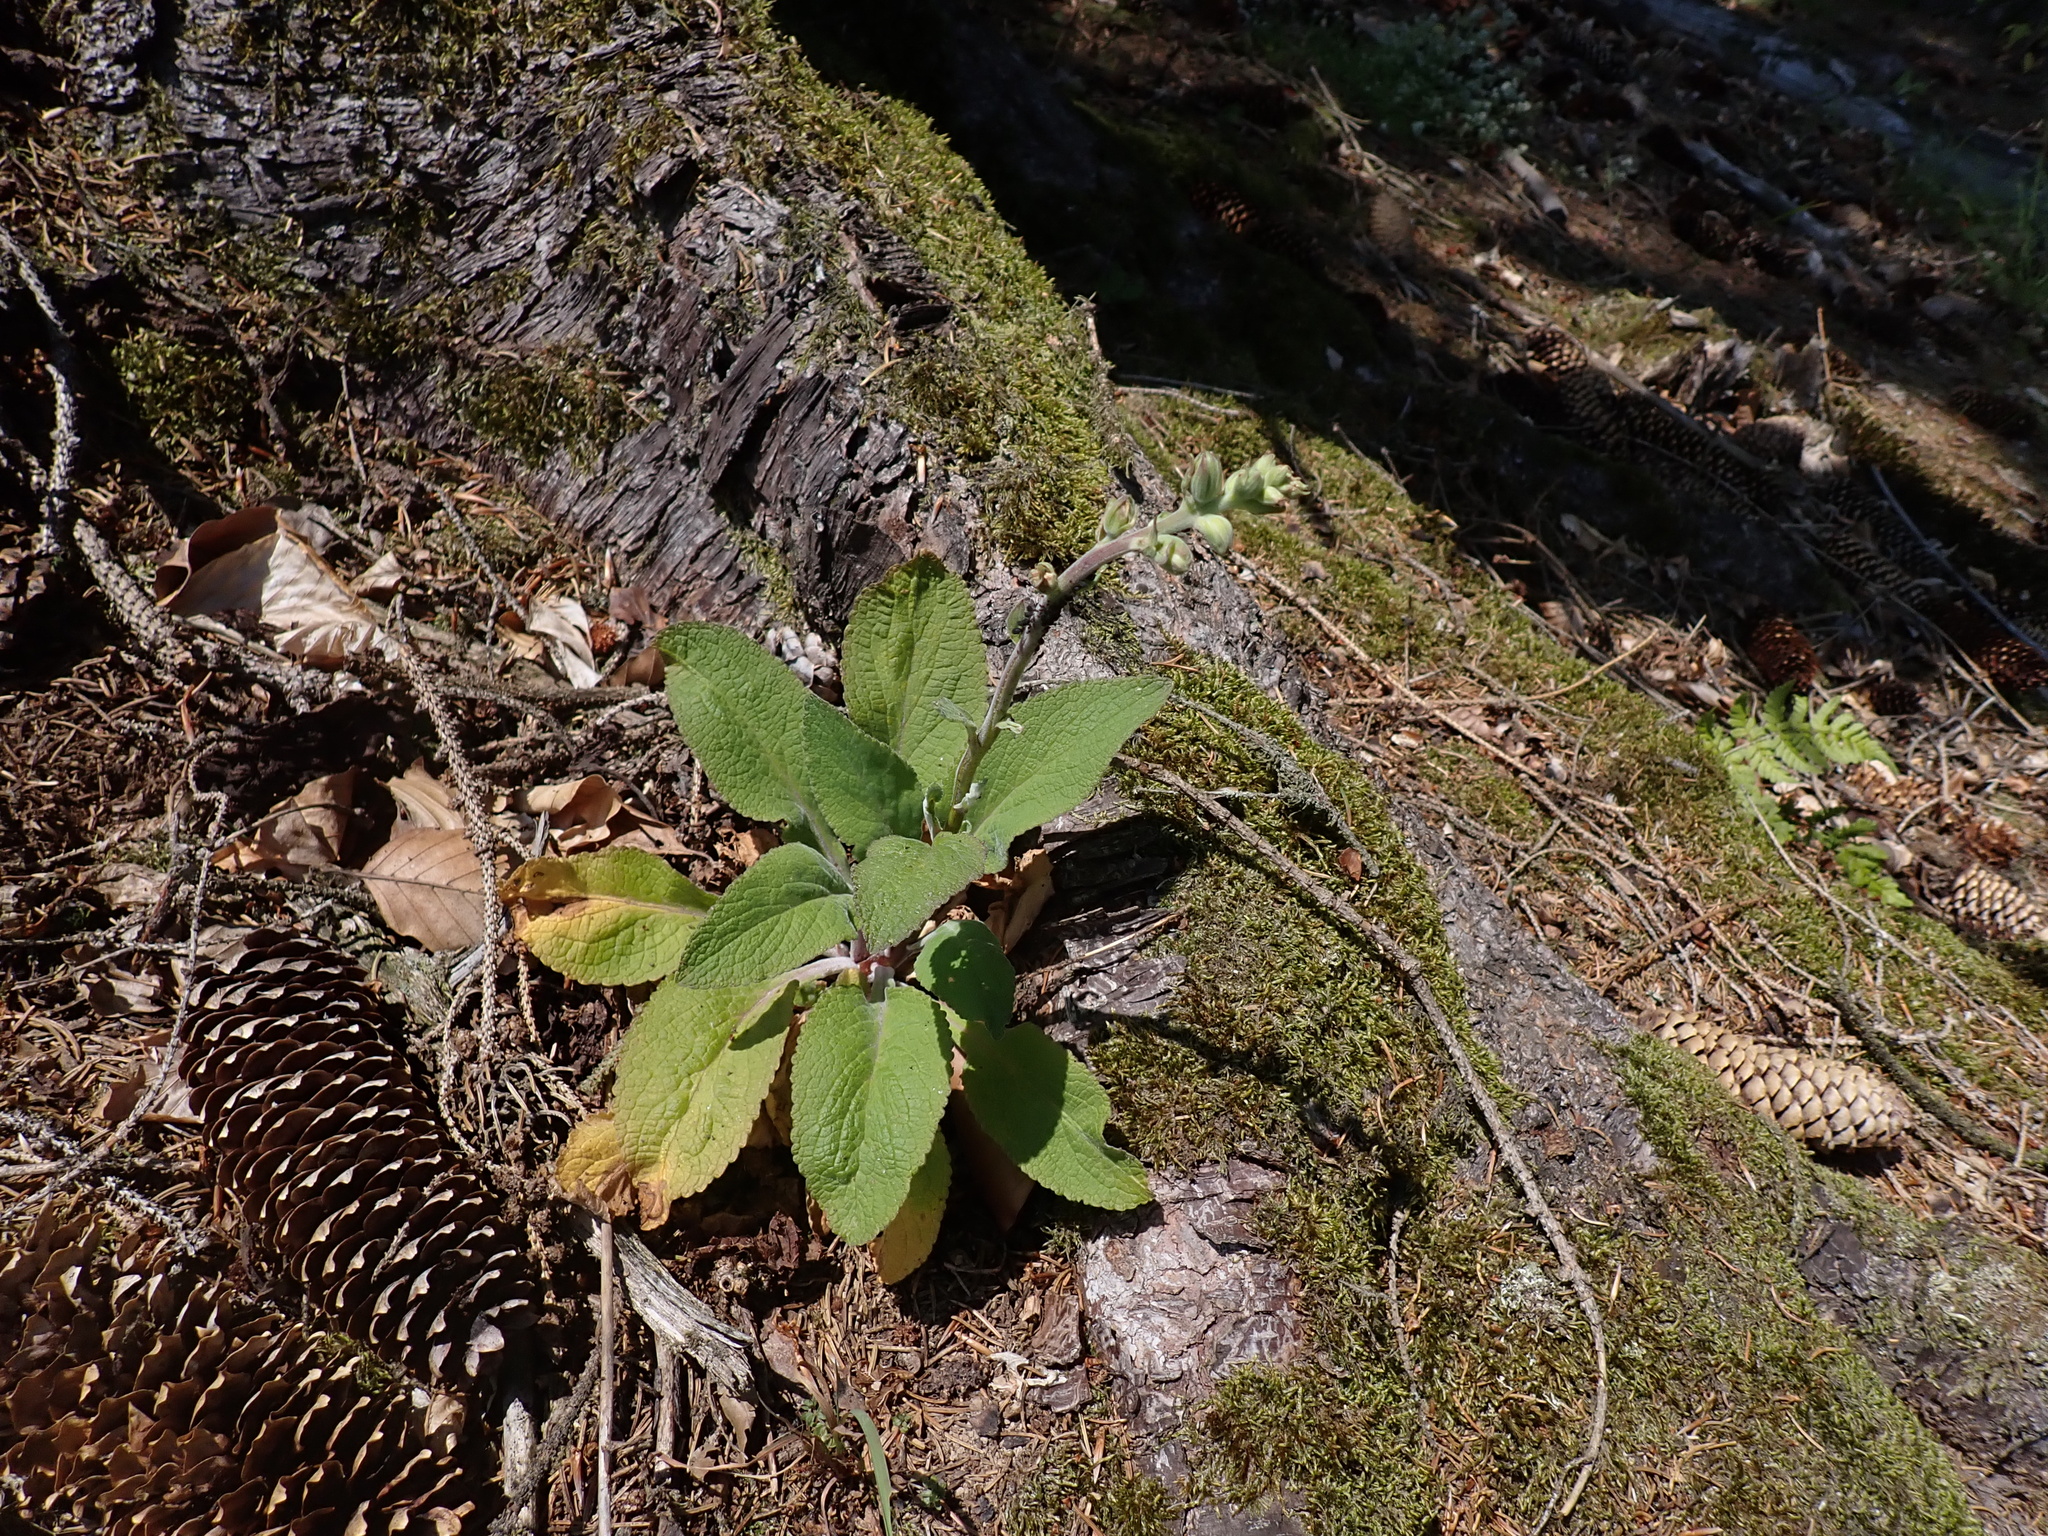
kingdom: Plantae
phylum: Tracheophyta
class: Magnoliopsida
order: Lamiales
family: Plantaginaceae
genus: Digitalis
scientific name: Digitalis purpurea
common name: Foxglove
